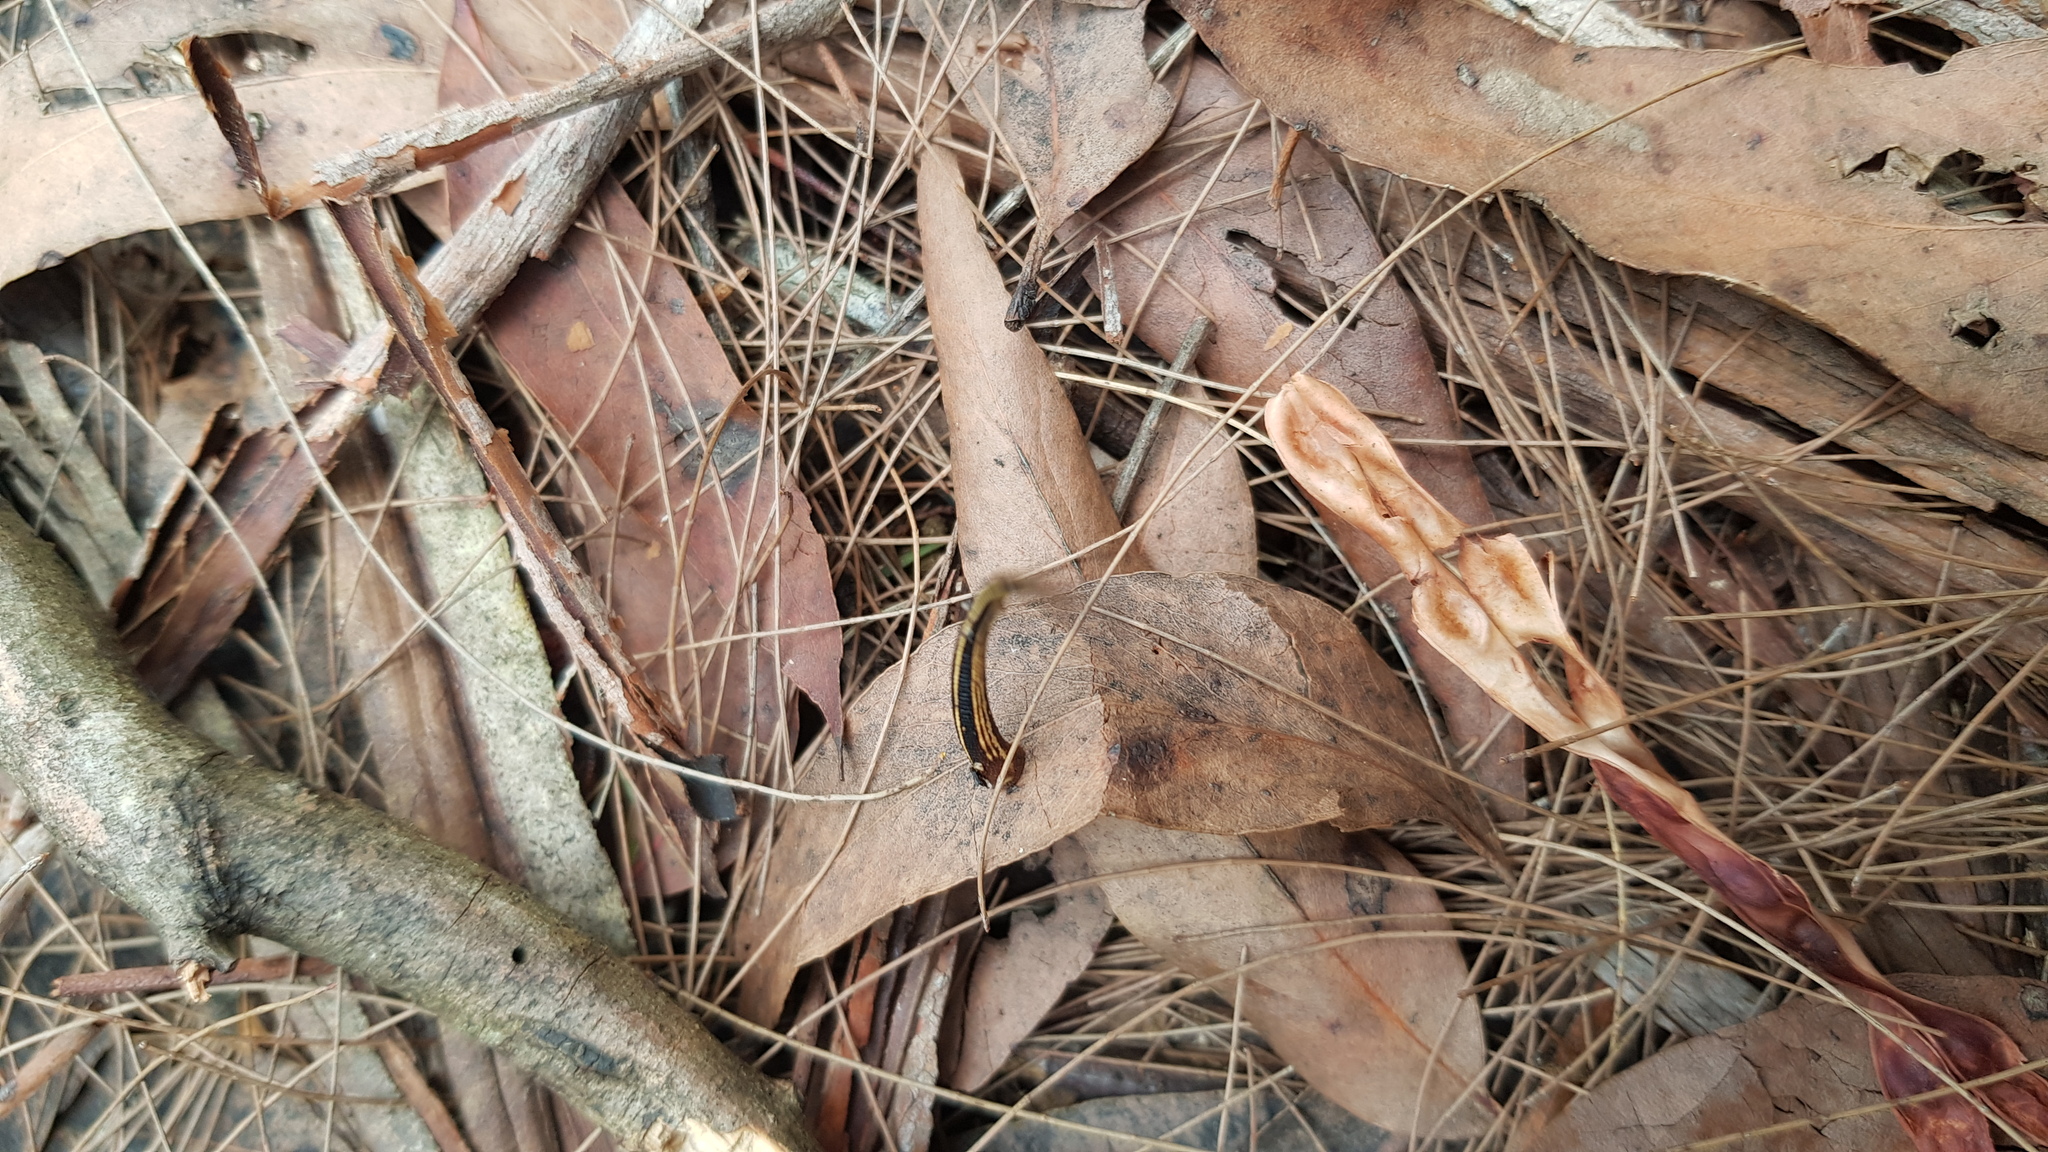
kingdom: Animalia
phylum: Annelida
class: Clitellata
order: Arhynchobdellida
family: Haemadipsidae
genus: Chtonobdella
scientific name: Chtonobdella limbata
